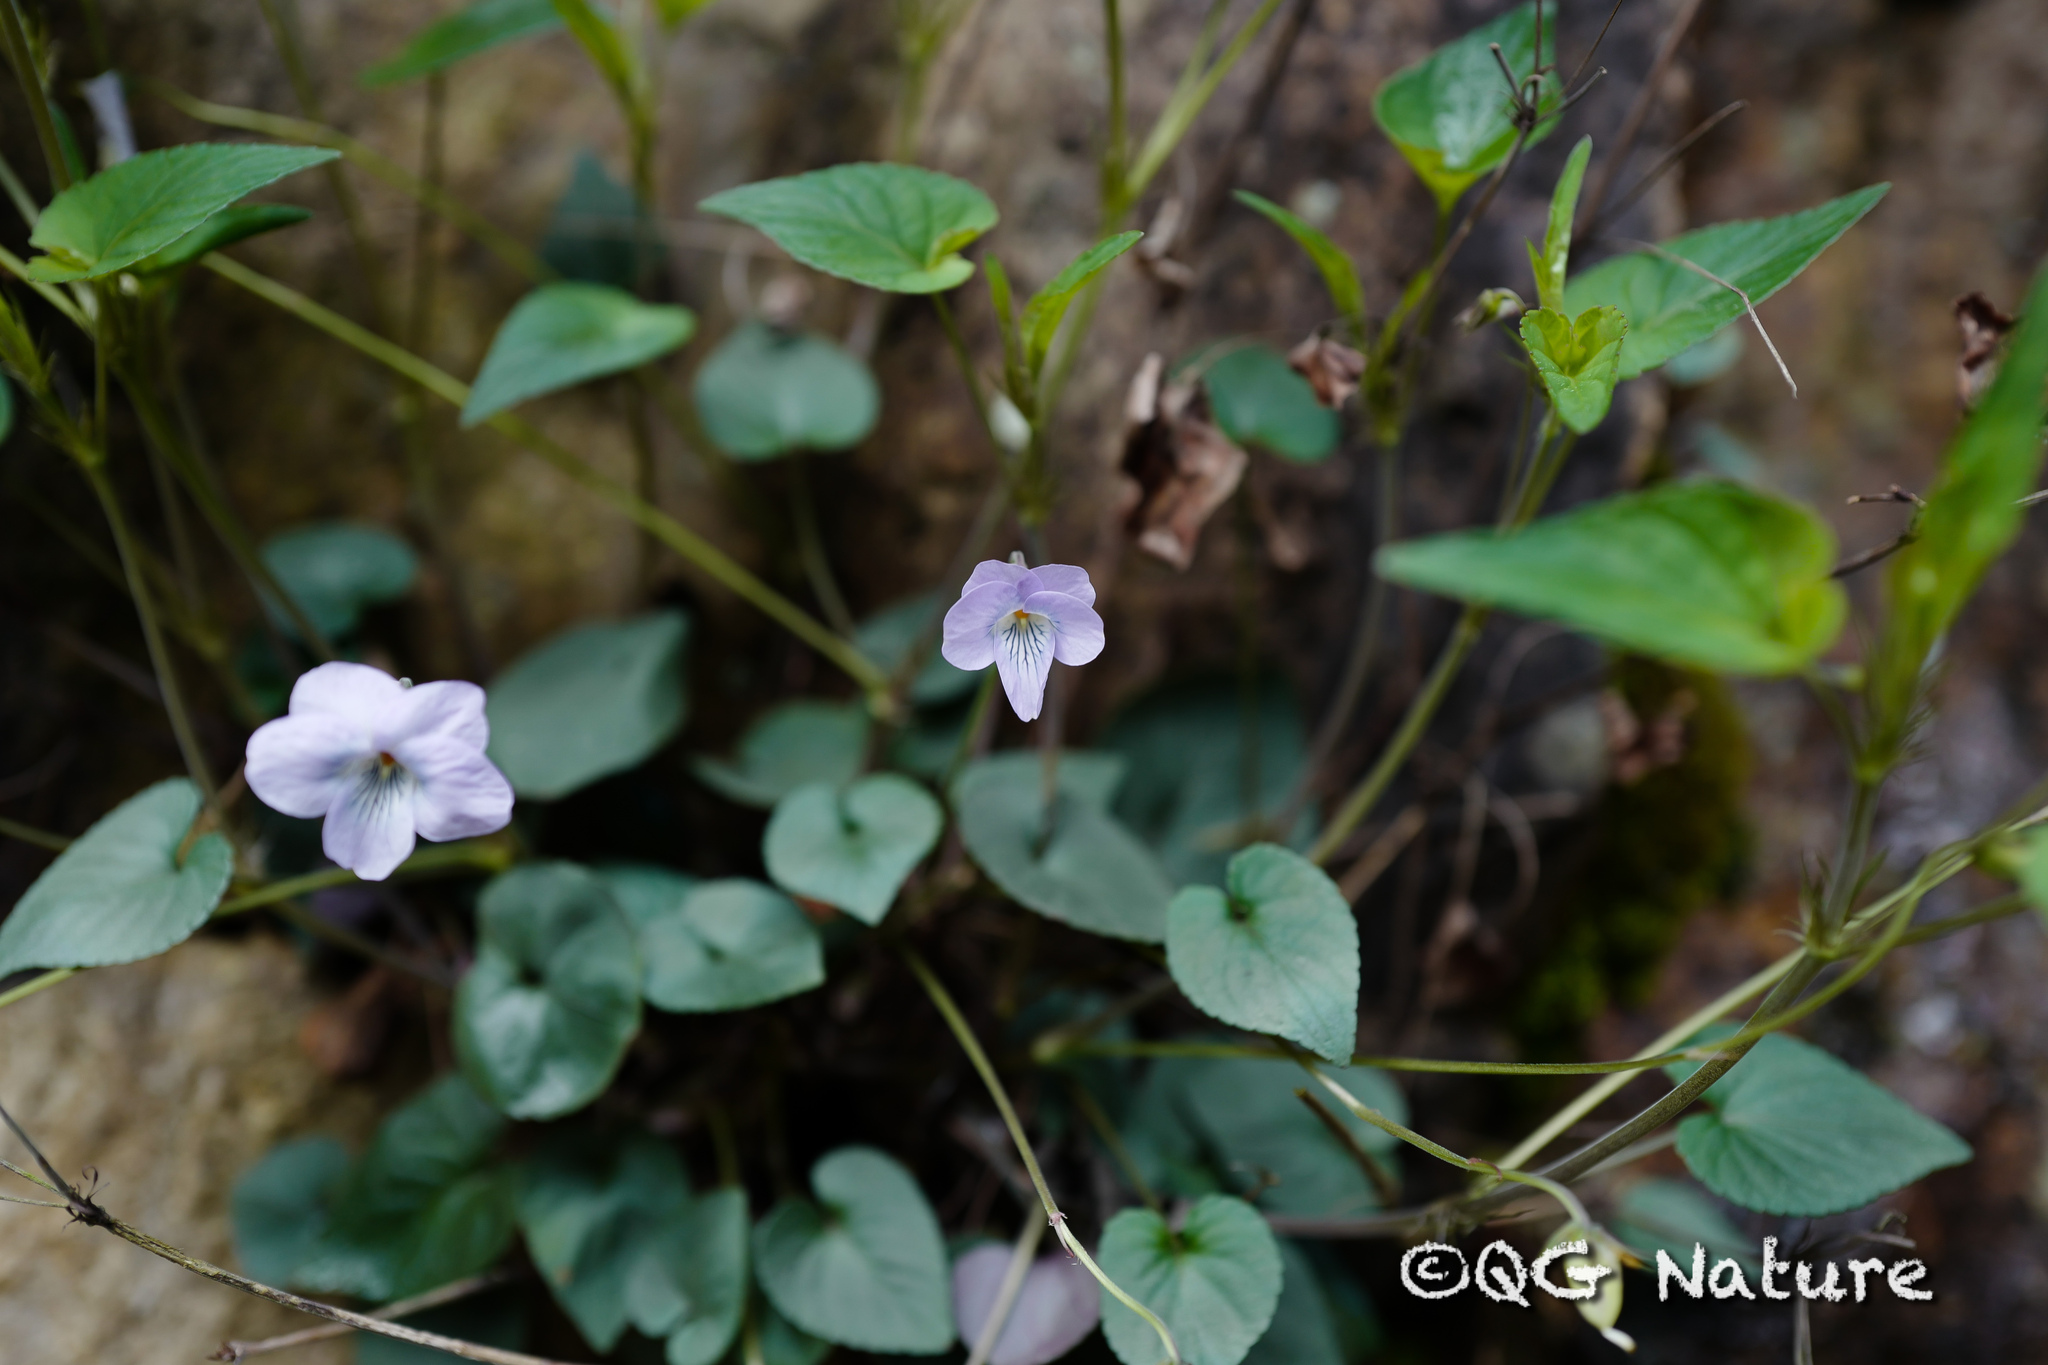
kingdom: Plantae
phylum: Tracheophyta
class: Magnoliopsida
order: Malpighiales
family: Violaceae
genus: Viola
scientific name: Viola grypoceras
